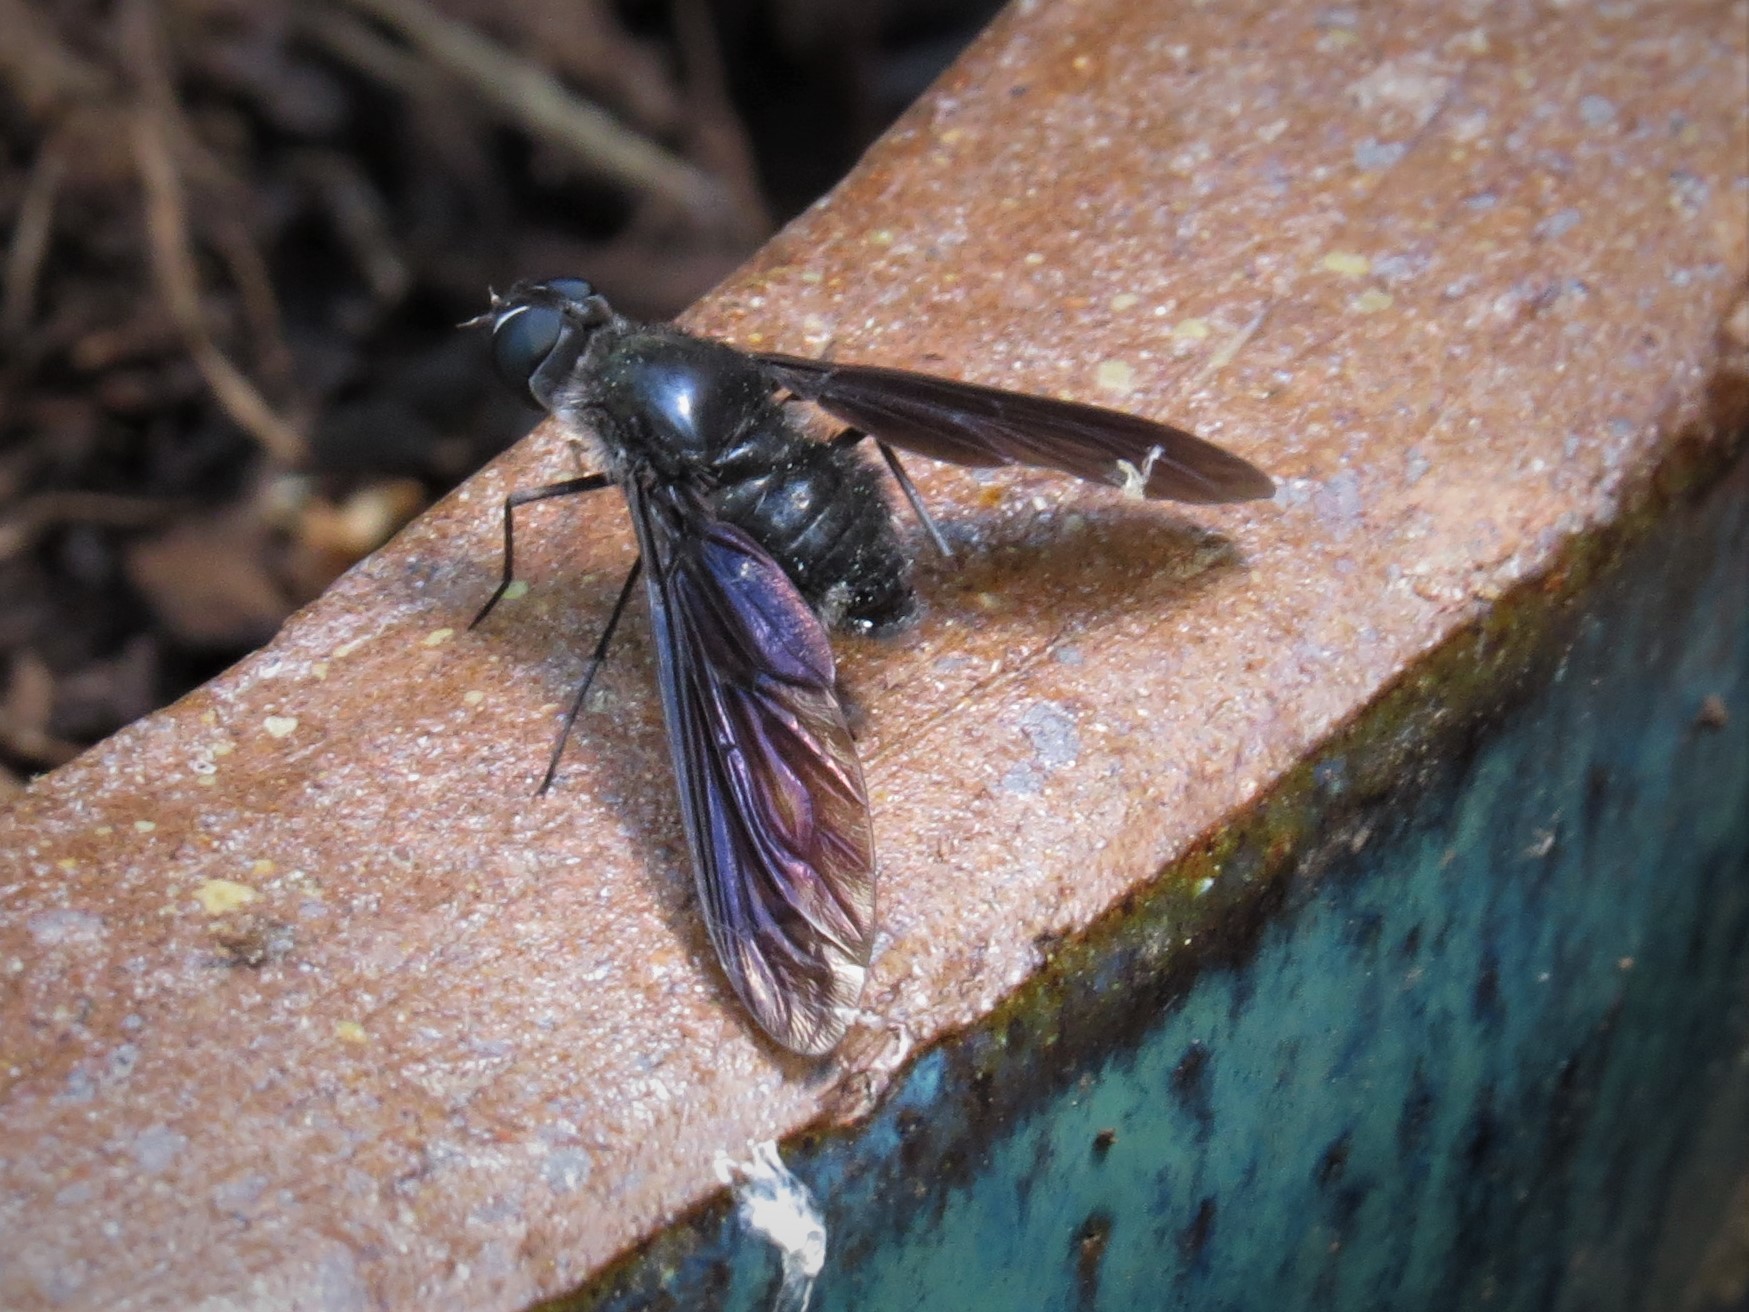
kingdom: Animalia
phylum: Arthropoda
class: Insecta
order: Diptera
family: Bombyliidae
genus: Brachyanax
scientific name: Brachyanax aterrimus
